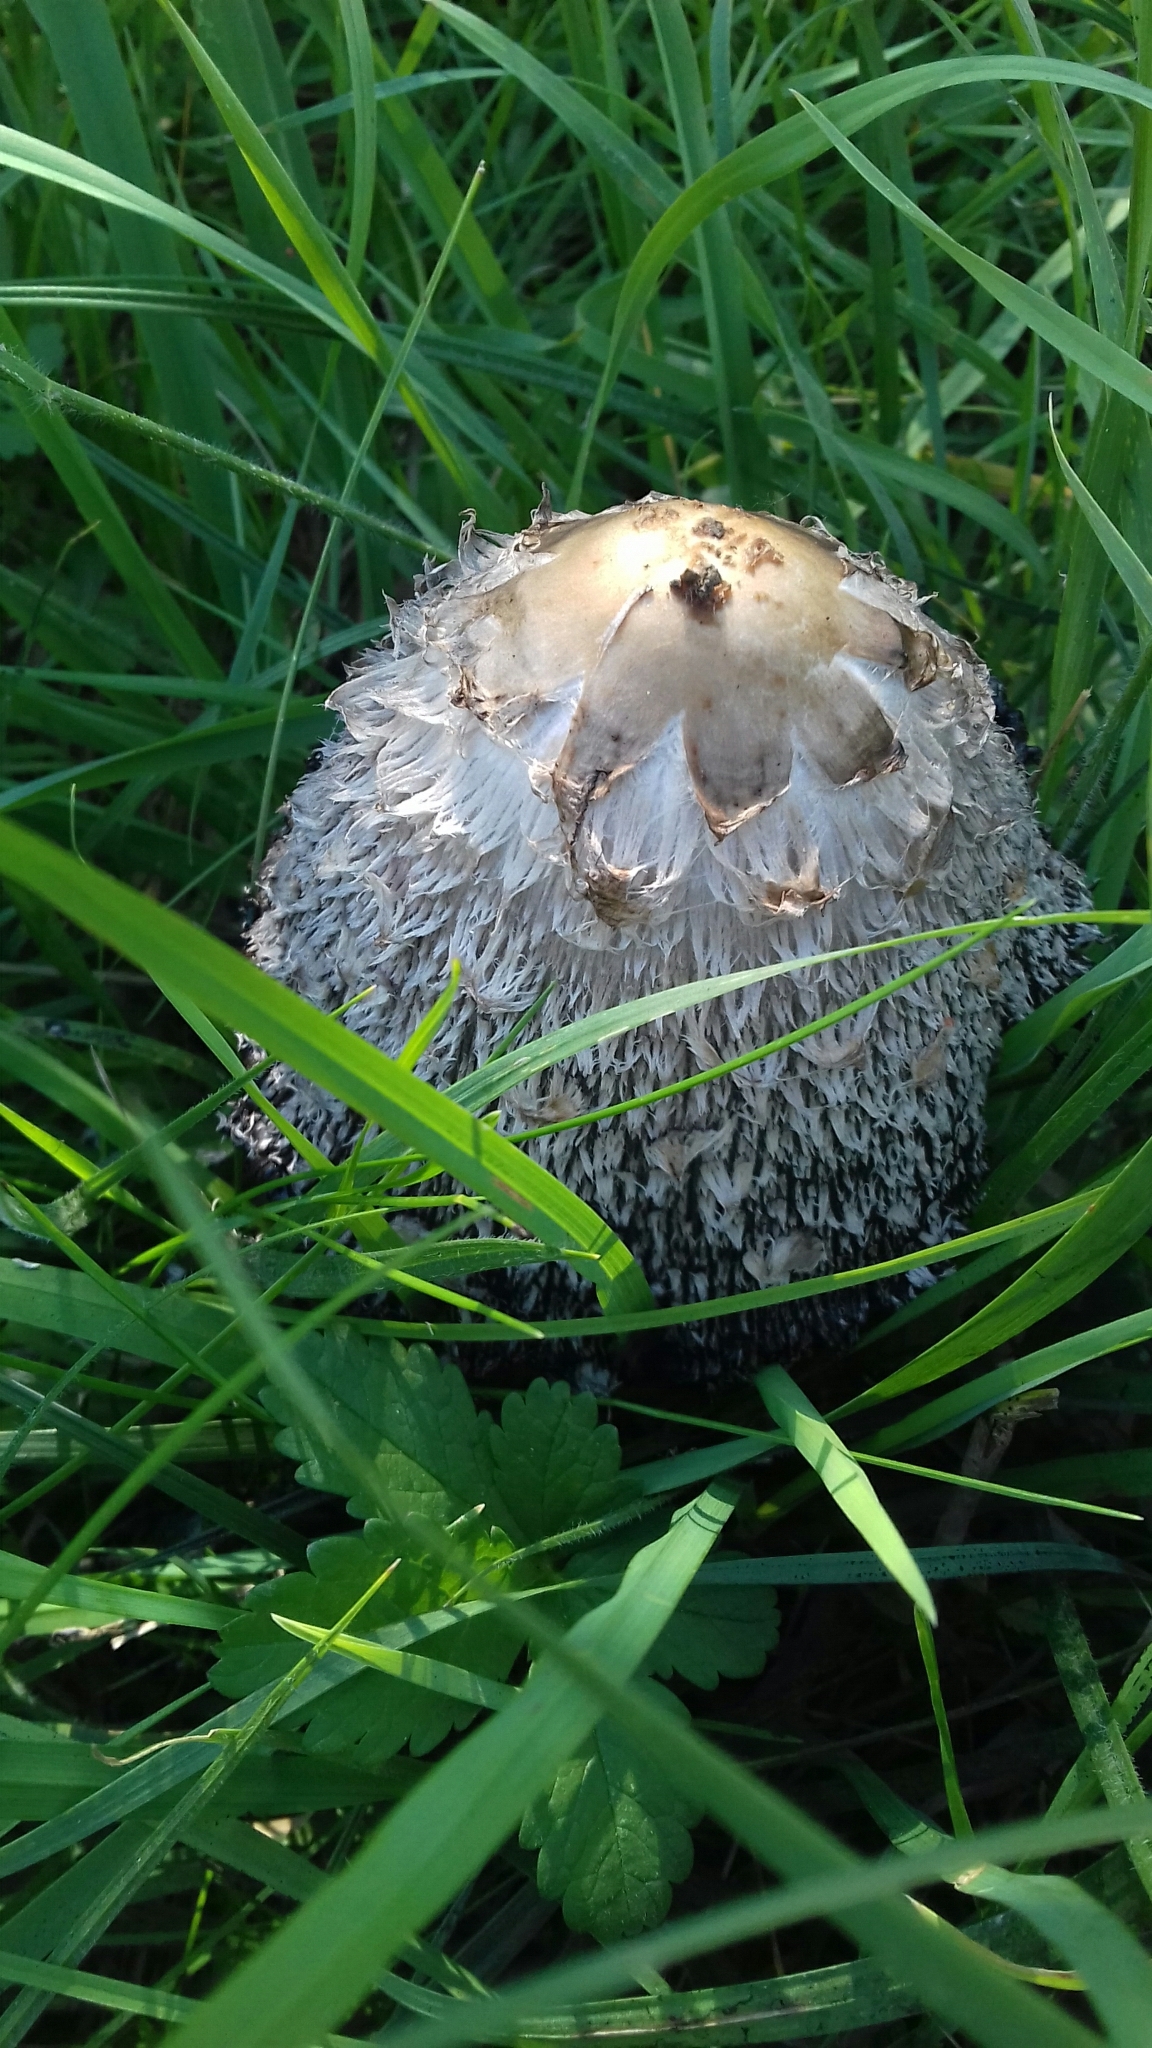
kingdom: Fungi
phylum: Basidiomycota
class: Agaricomycetes
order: Agaricales
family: Agaricaceae
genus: Coprinus
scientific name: Coprinus comatus
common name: Lawyer's wig
